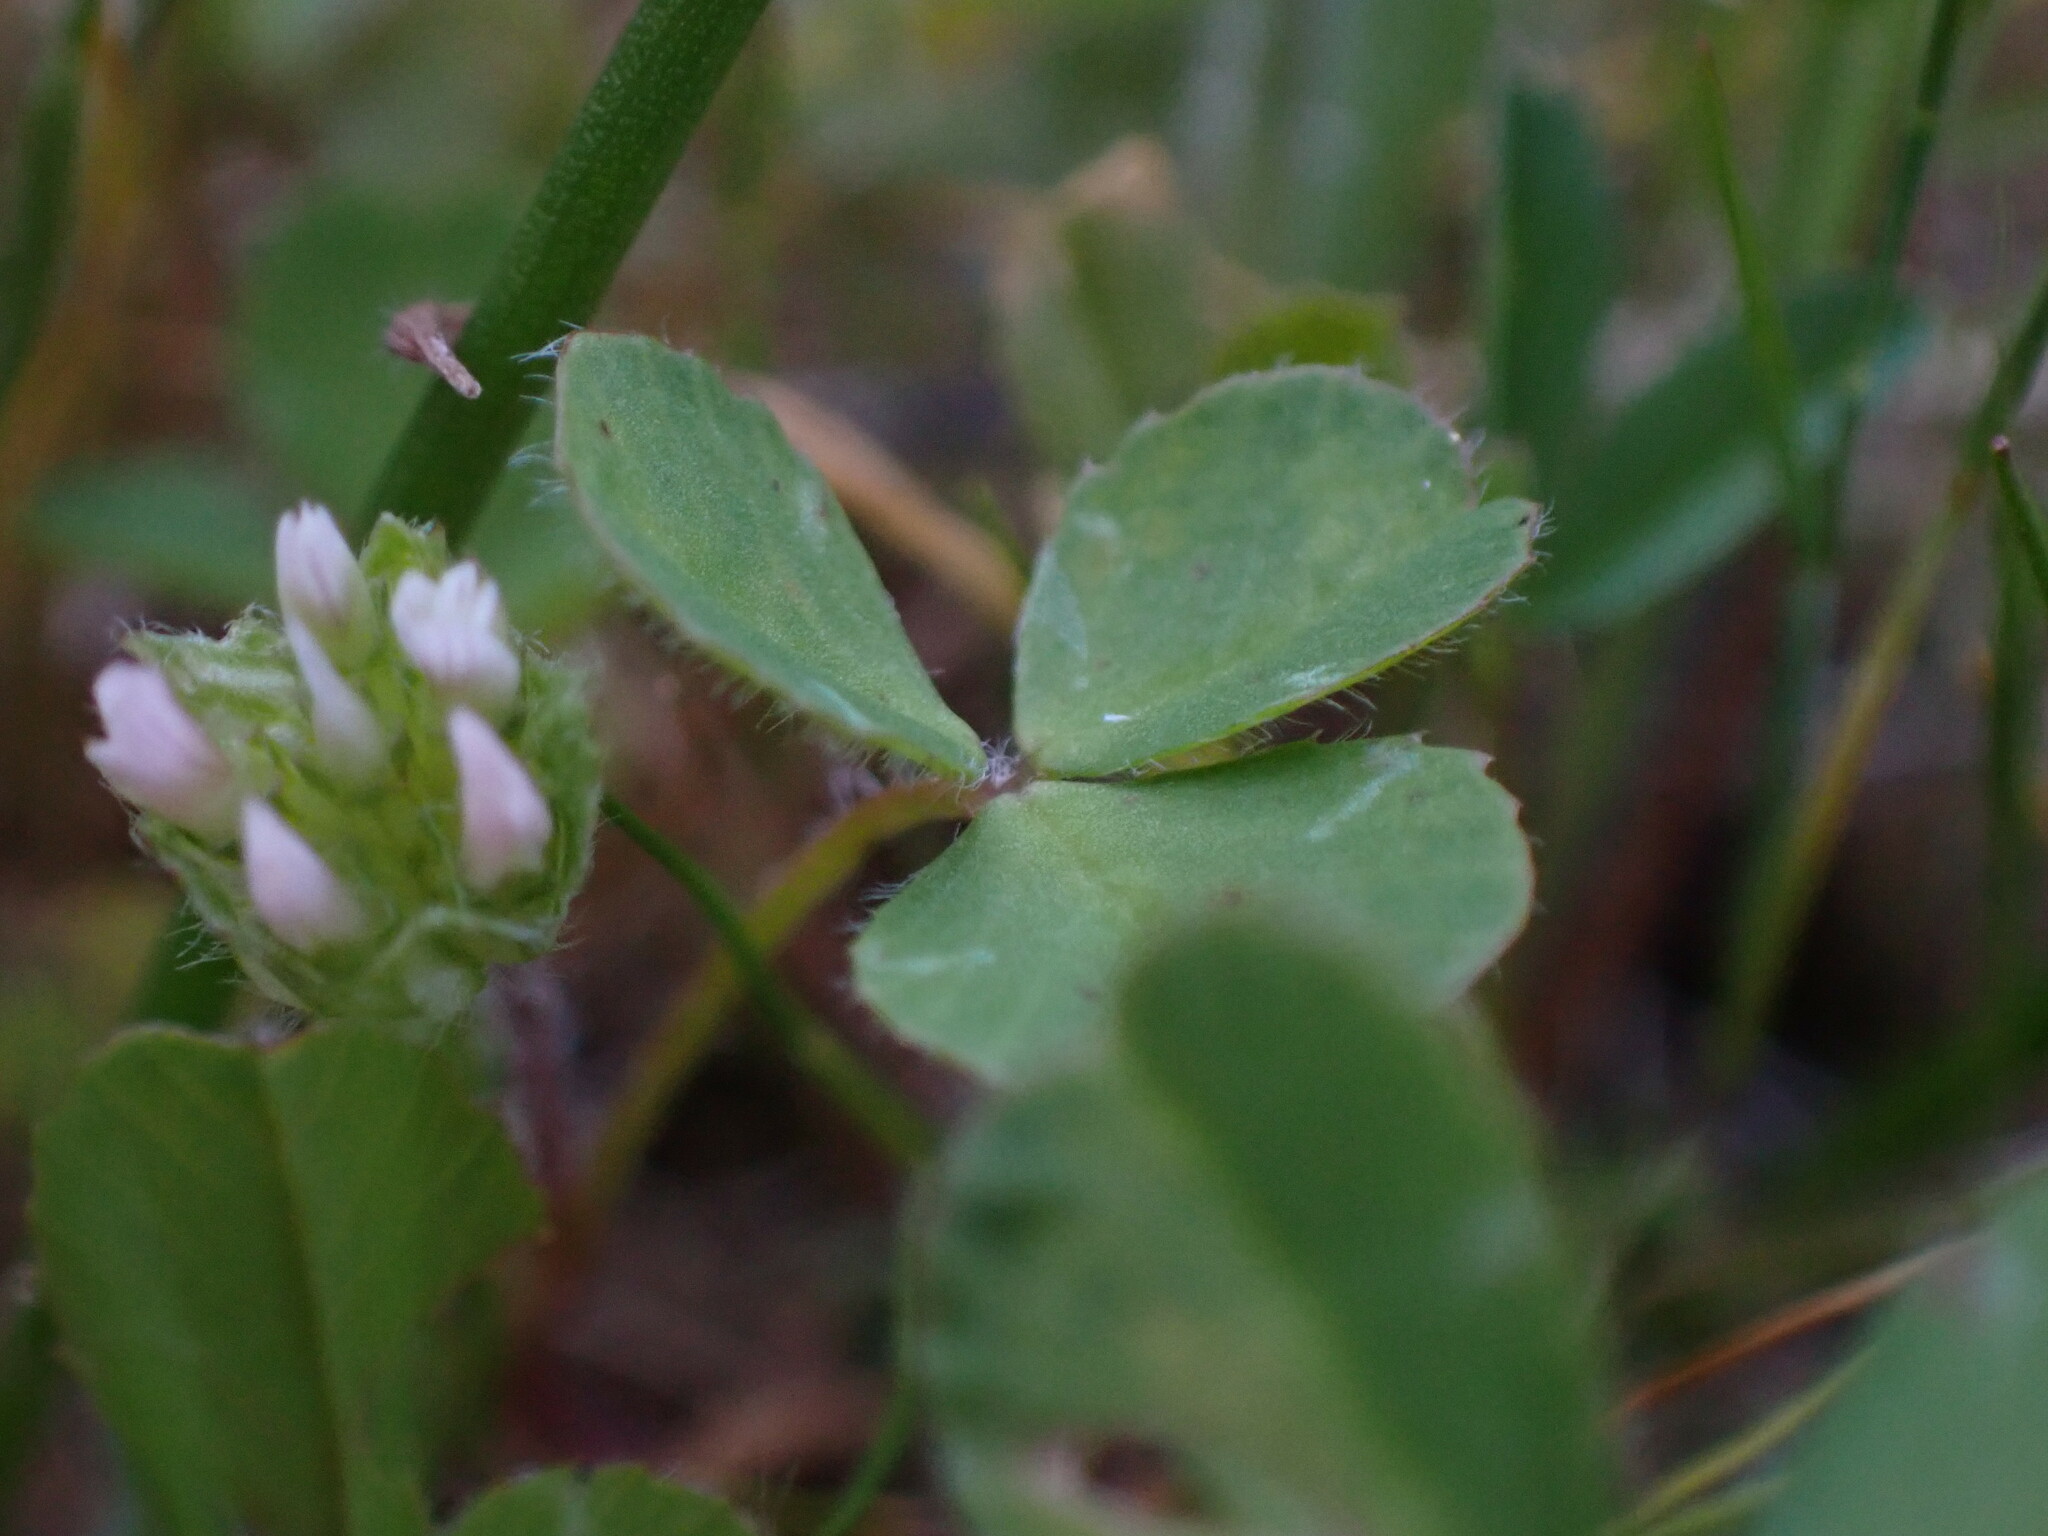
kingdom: Plantae
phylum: Tracheophyta
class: Magnoliopsida
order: Fabales
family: Fabaceae
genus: Trifolium
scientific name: Trifolium microdon
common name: Thimble clover
